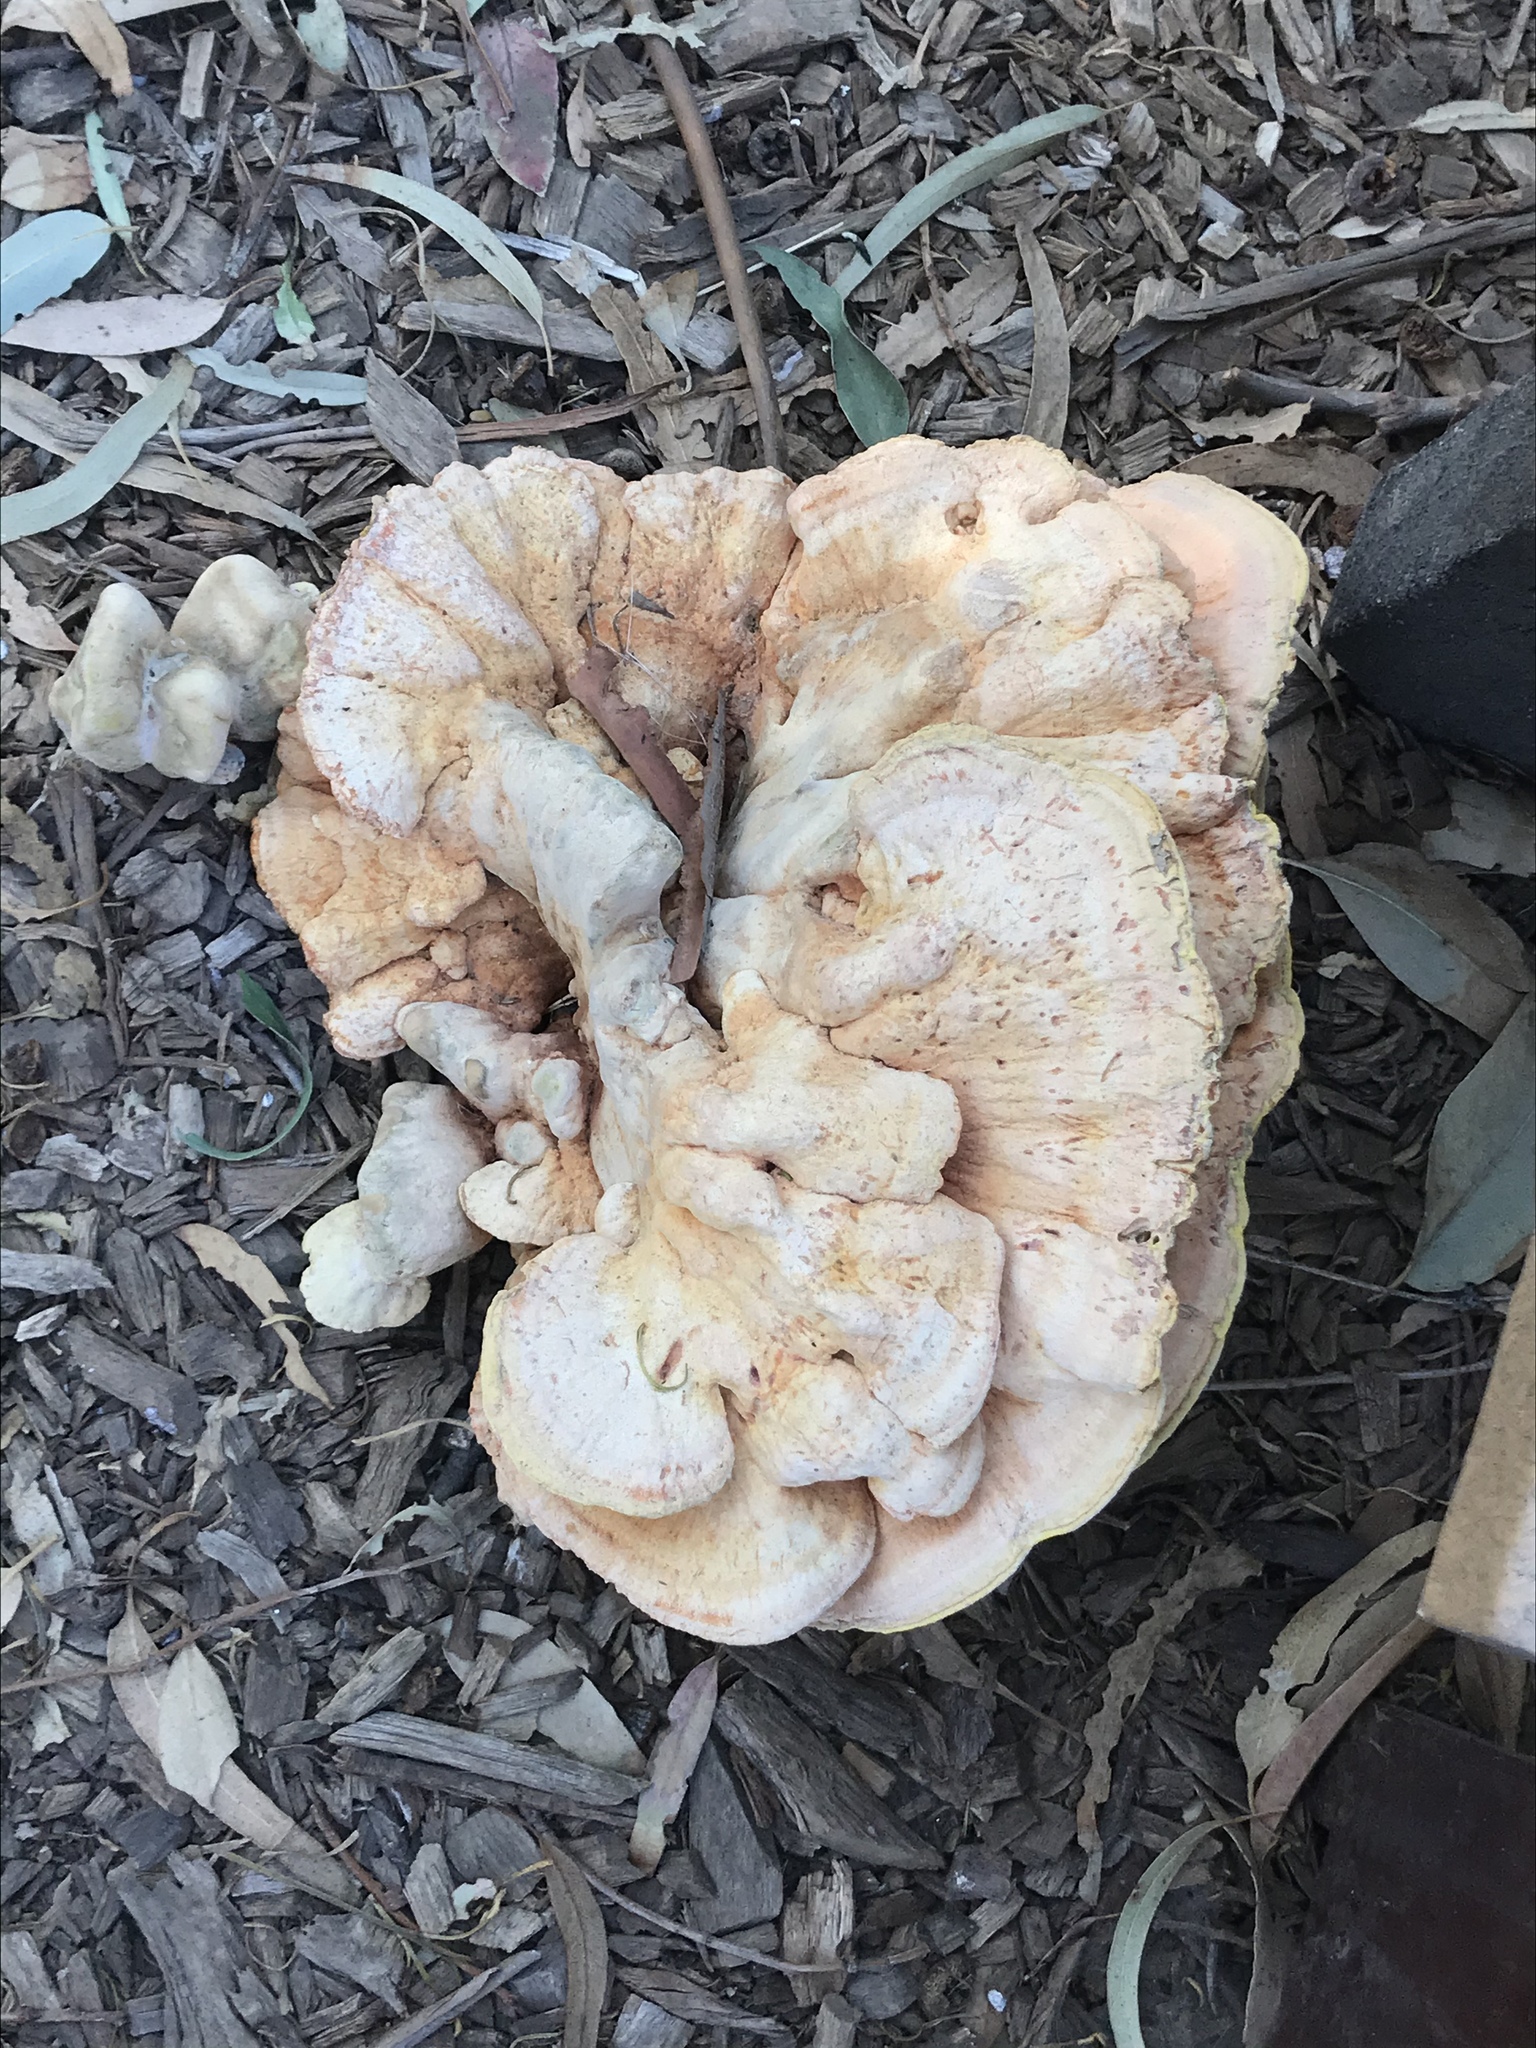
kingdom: Fungi
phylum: Basidiomycota
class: Agaricomycetes
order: Polyporales
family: Laetiporaceae
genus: Laetiporus
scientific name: Laetiporus gilbertsonii
